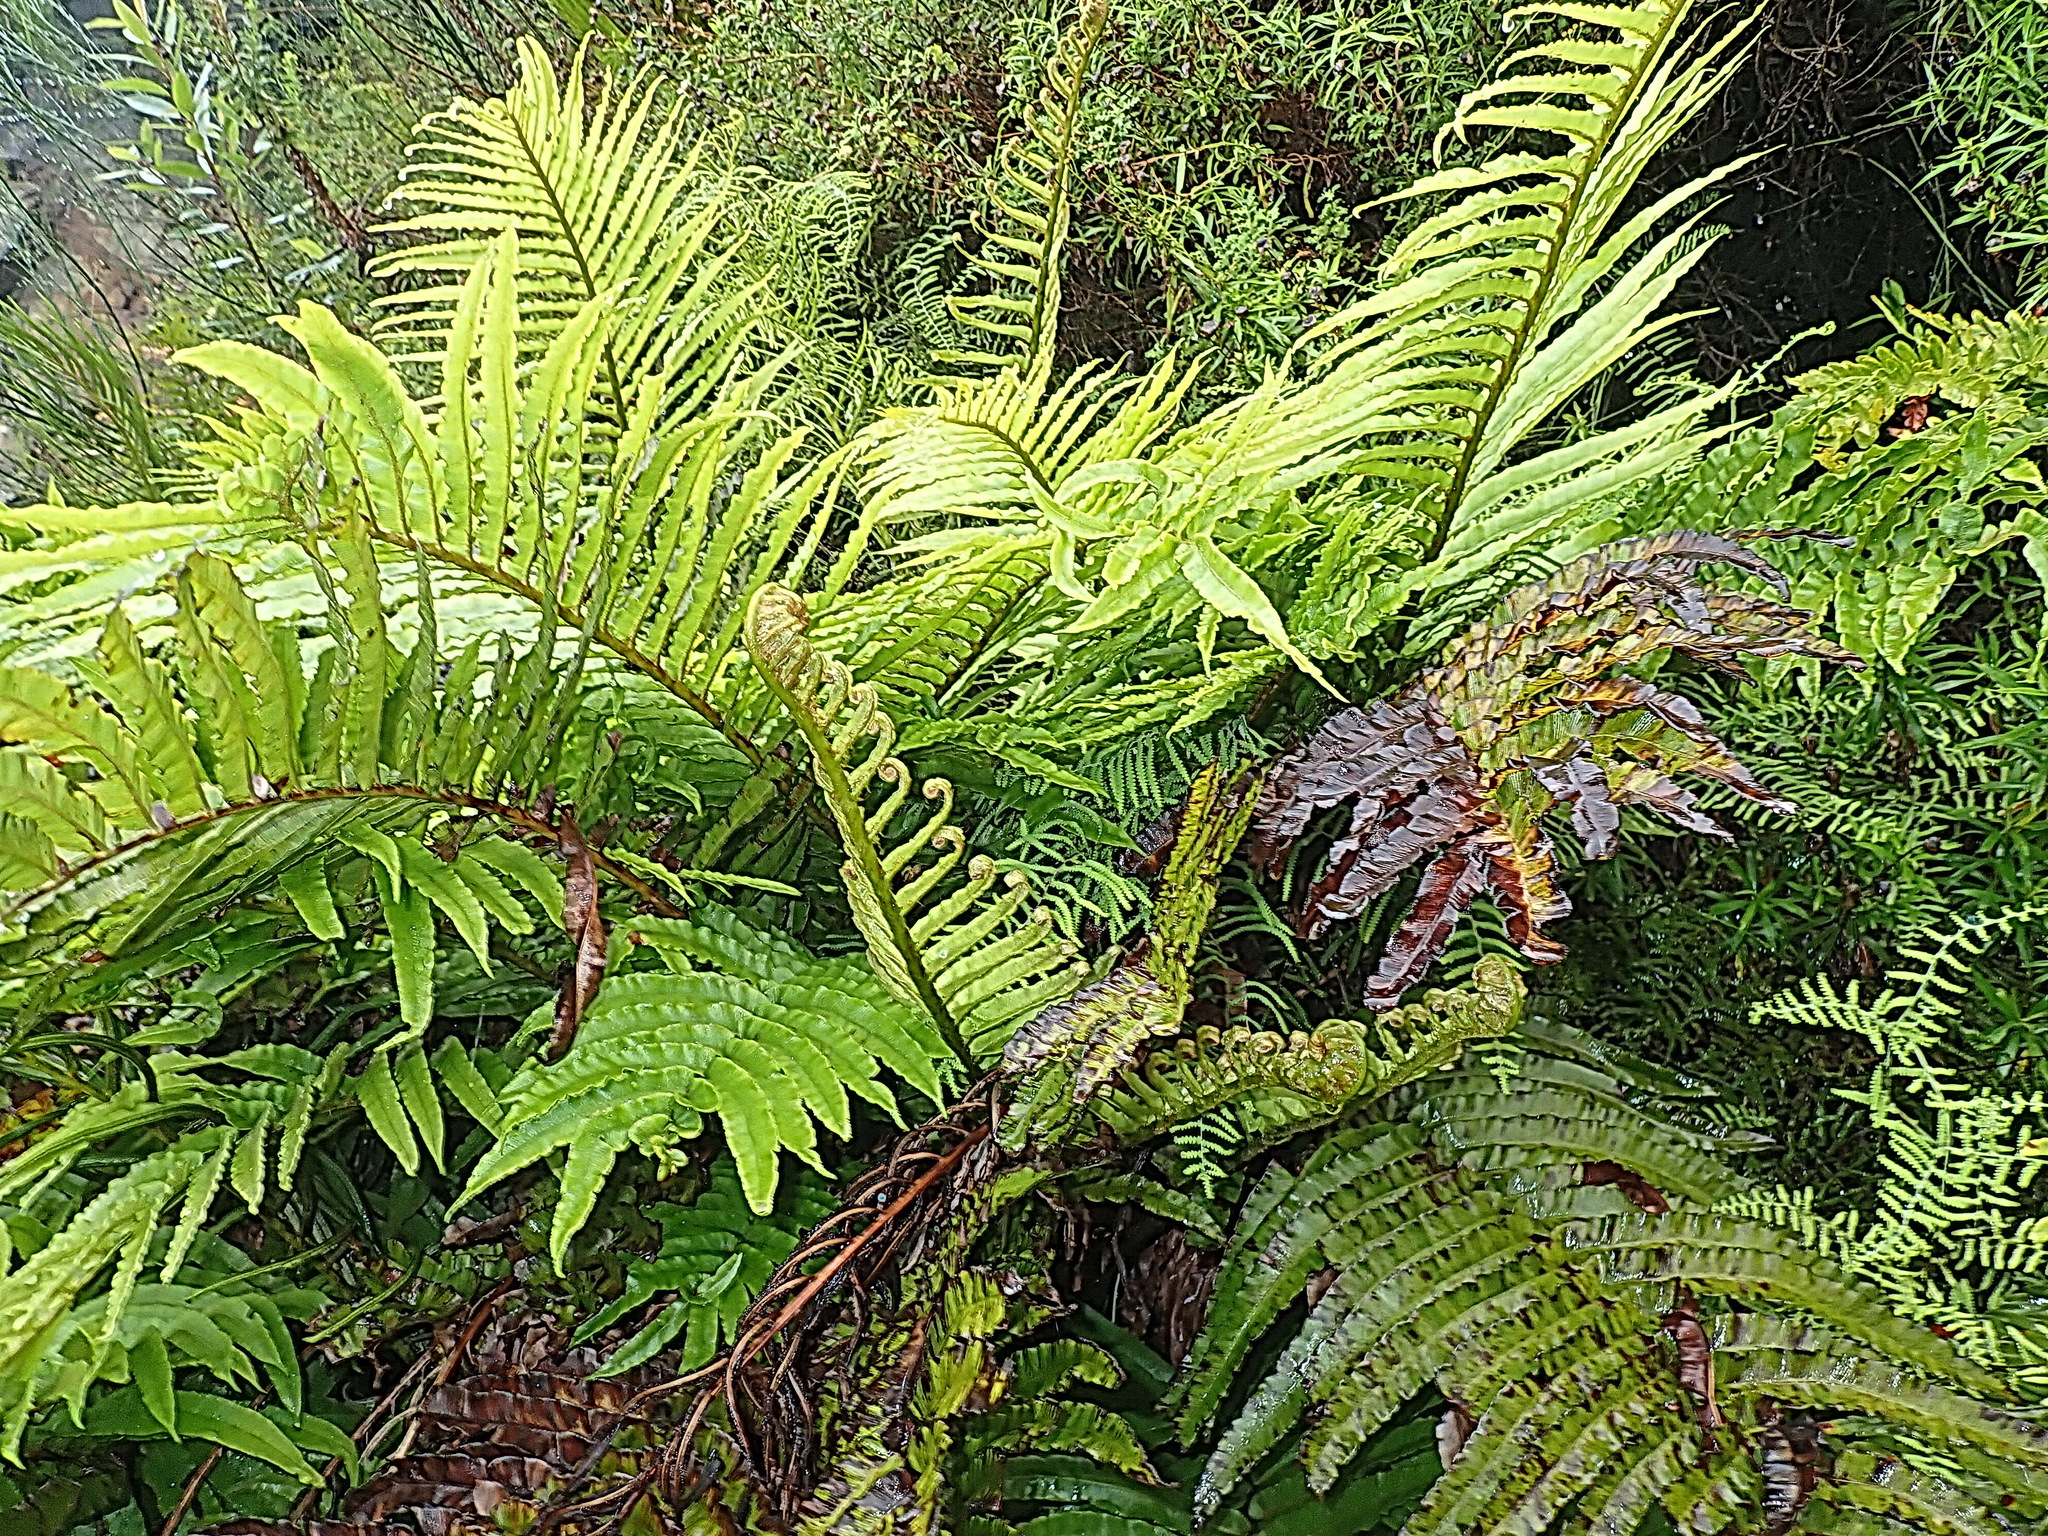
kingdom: Plantae
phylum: Tracheophyta
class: Polypodiopsida
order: Polypodiales
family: Blechnaceae
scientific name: Blechnaceae
